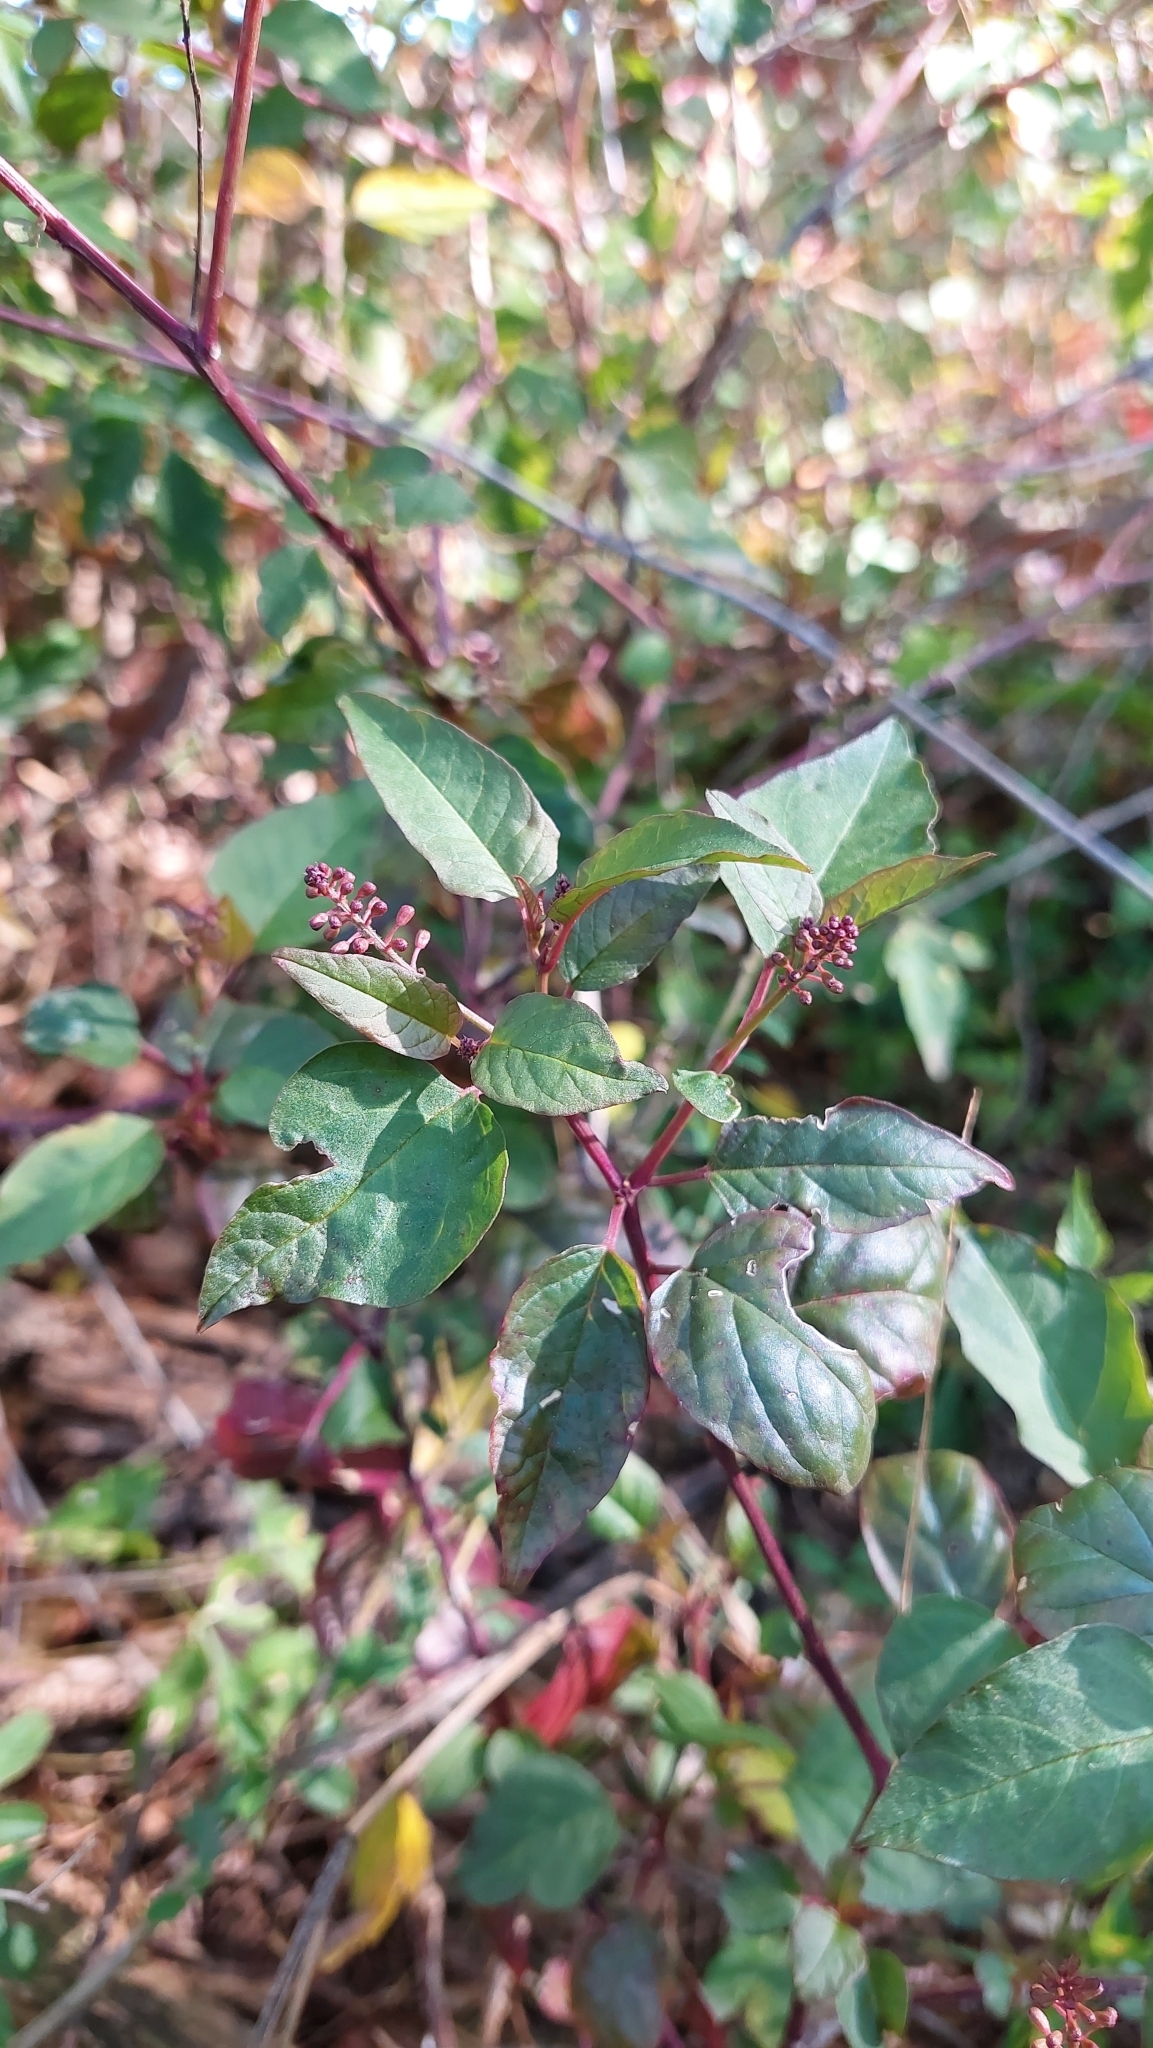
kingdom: Plantae
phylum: Tracheophyta
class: Magnoliopsida
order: Caryophyllales
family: Phytolaccaceae
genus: Rivina
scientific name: Rivina humilis
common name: Rougeplant
